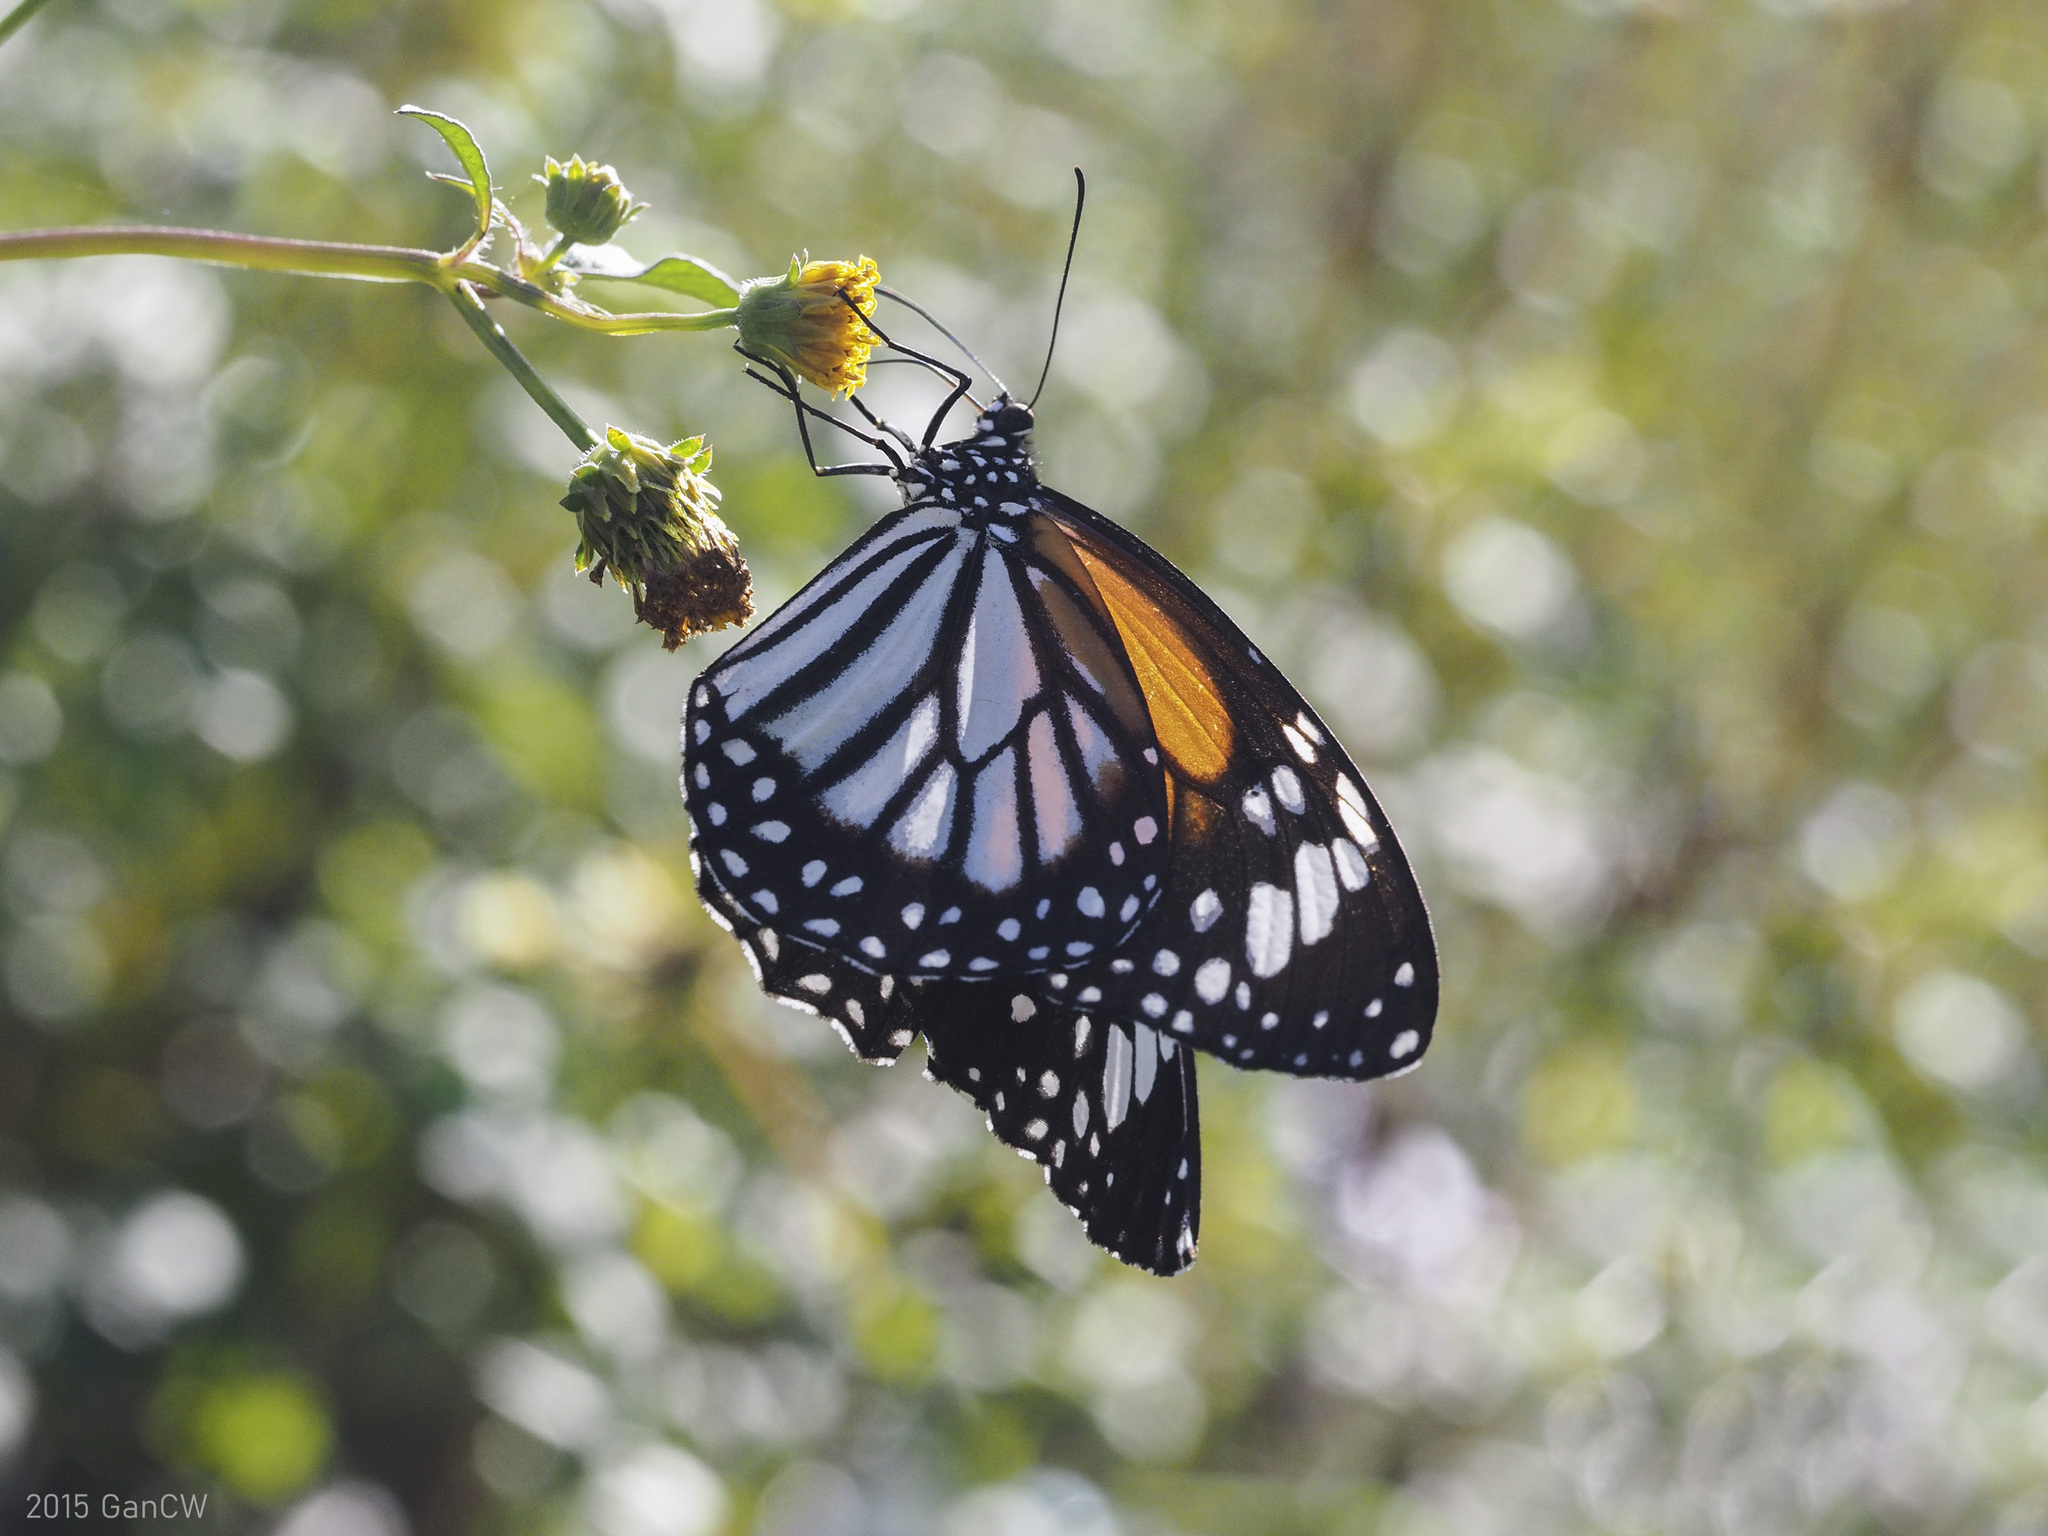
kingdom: Animalia
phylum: Arthropoda
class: Insecta
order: Lepidoptera
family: Nymphalidae
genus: Danaus
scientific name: Danaus melanippus
